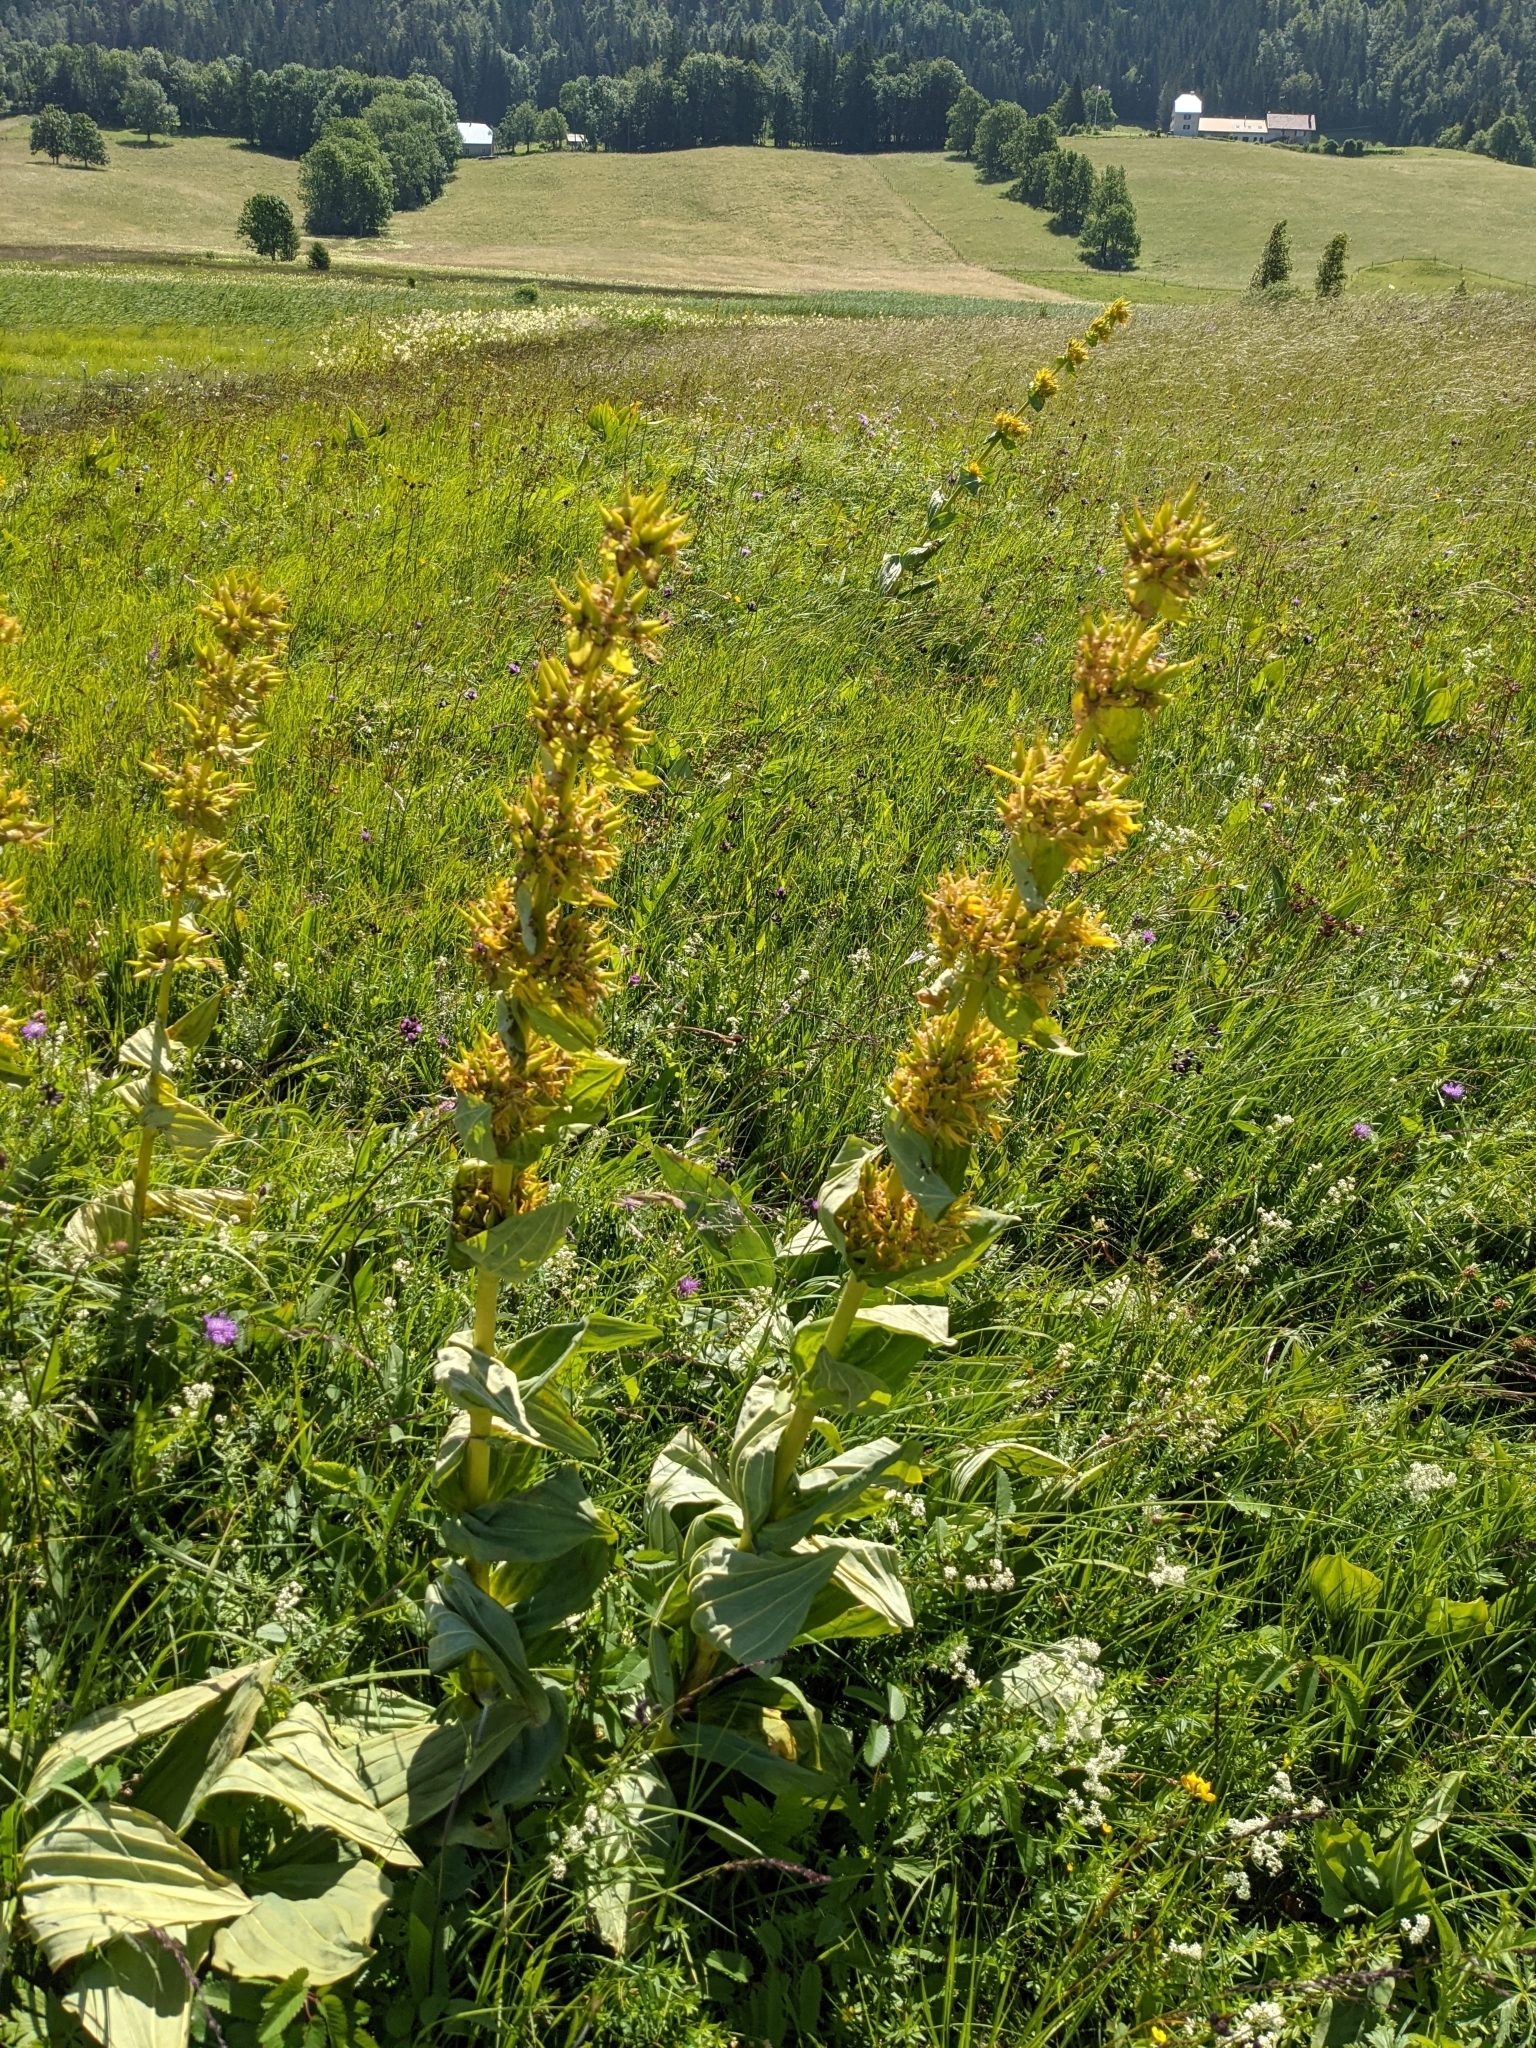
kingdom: Plantae
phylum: Tracheophyta
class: Magnoliopsida
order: Gentianales
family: Gentianaceae
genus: Gentiana
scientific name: Gentiana lutea
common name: Great yellow gentian
